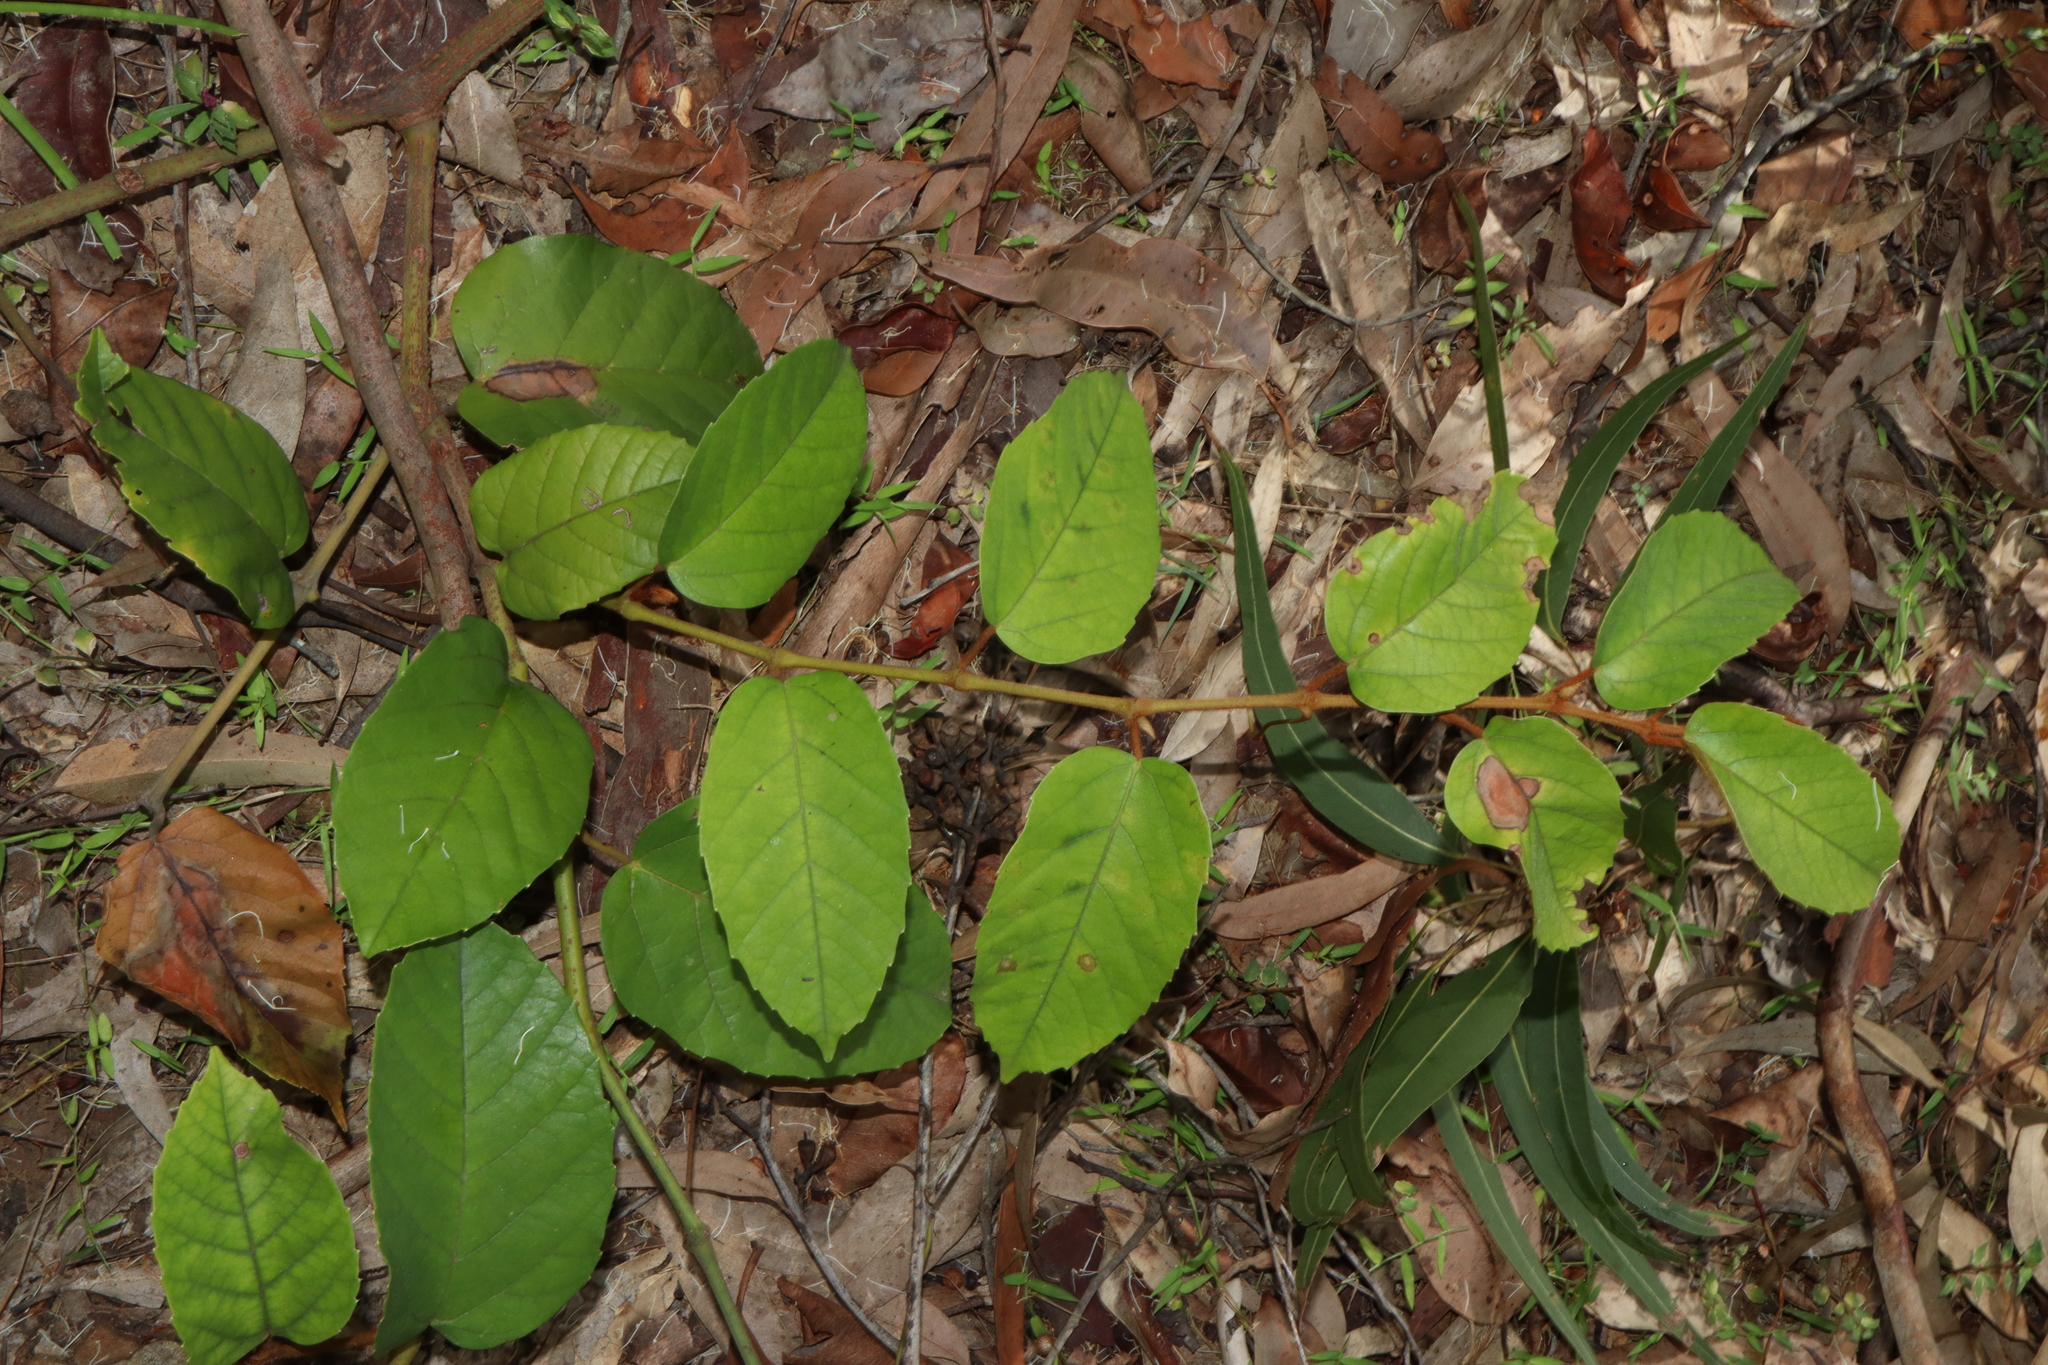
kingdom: Plantae
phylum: Tracheophyta
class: Magnoliopsida
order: Vitales
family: Vitaceae
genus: Cissus
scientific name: Cissus antarctica
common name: Kangaroo vine
